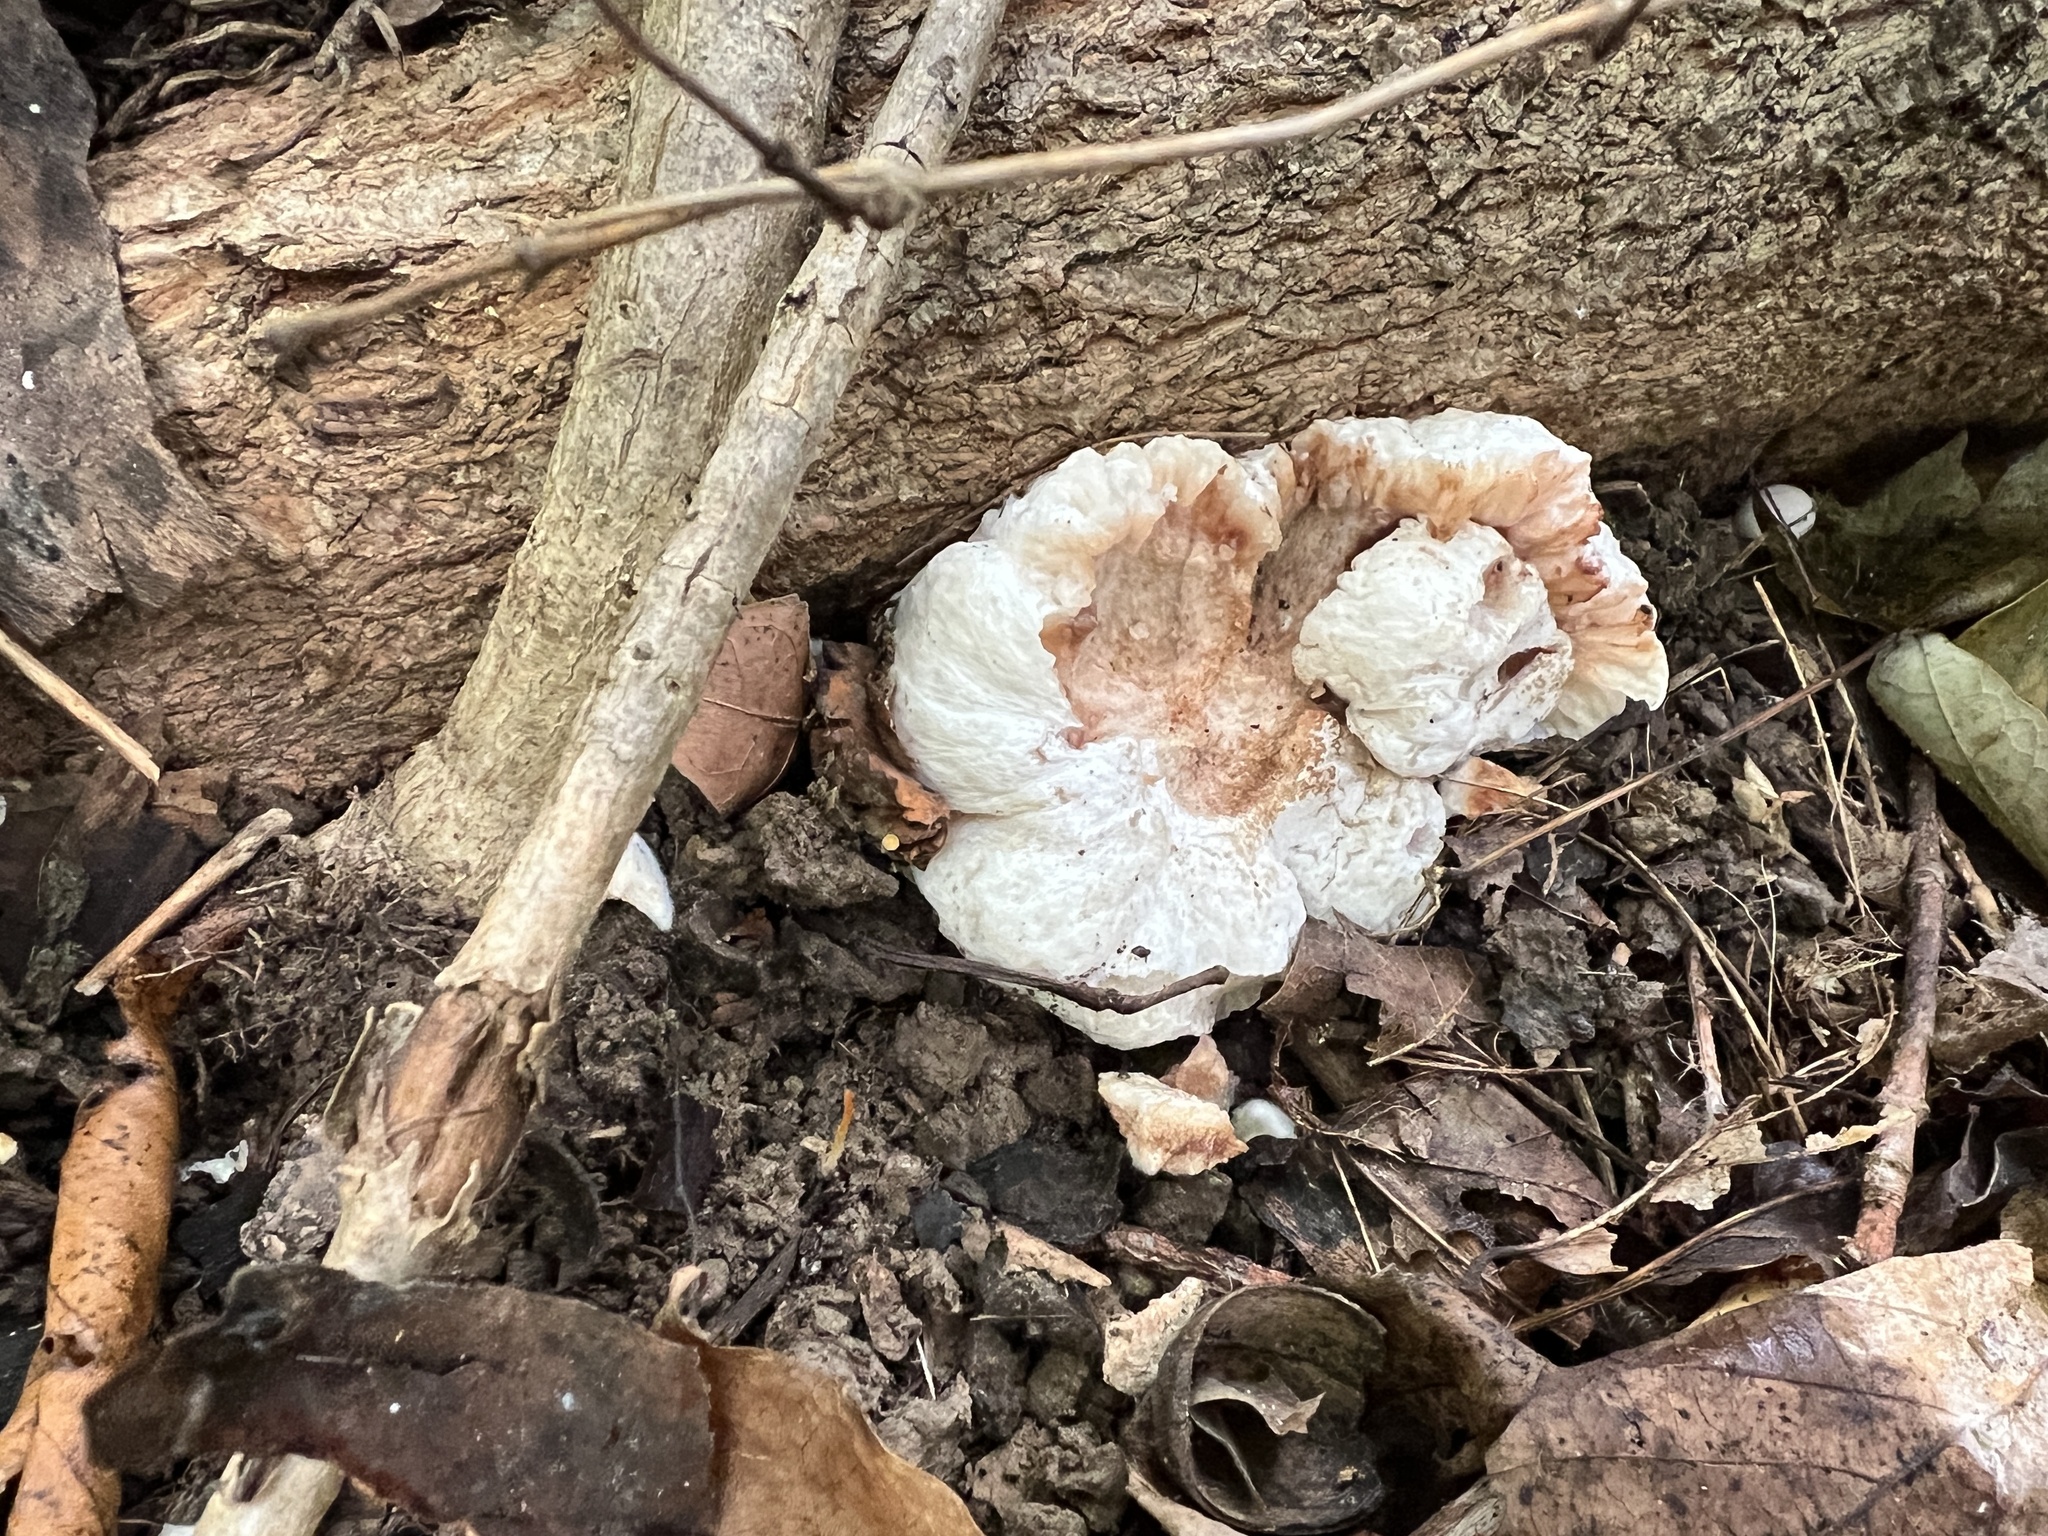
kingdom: Fungi
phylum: Basidiomycota
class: Agaricomycetes
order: Agaricales
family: Entolomataceae
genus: Entoloma
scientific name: Entoloma abortivum
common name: Aborted entoloma
